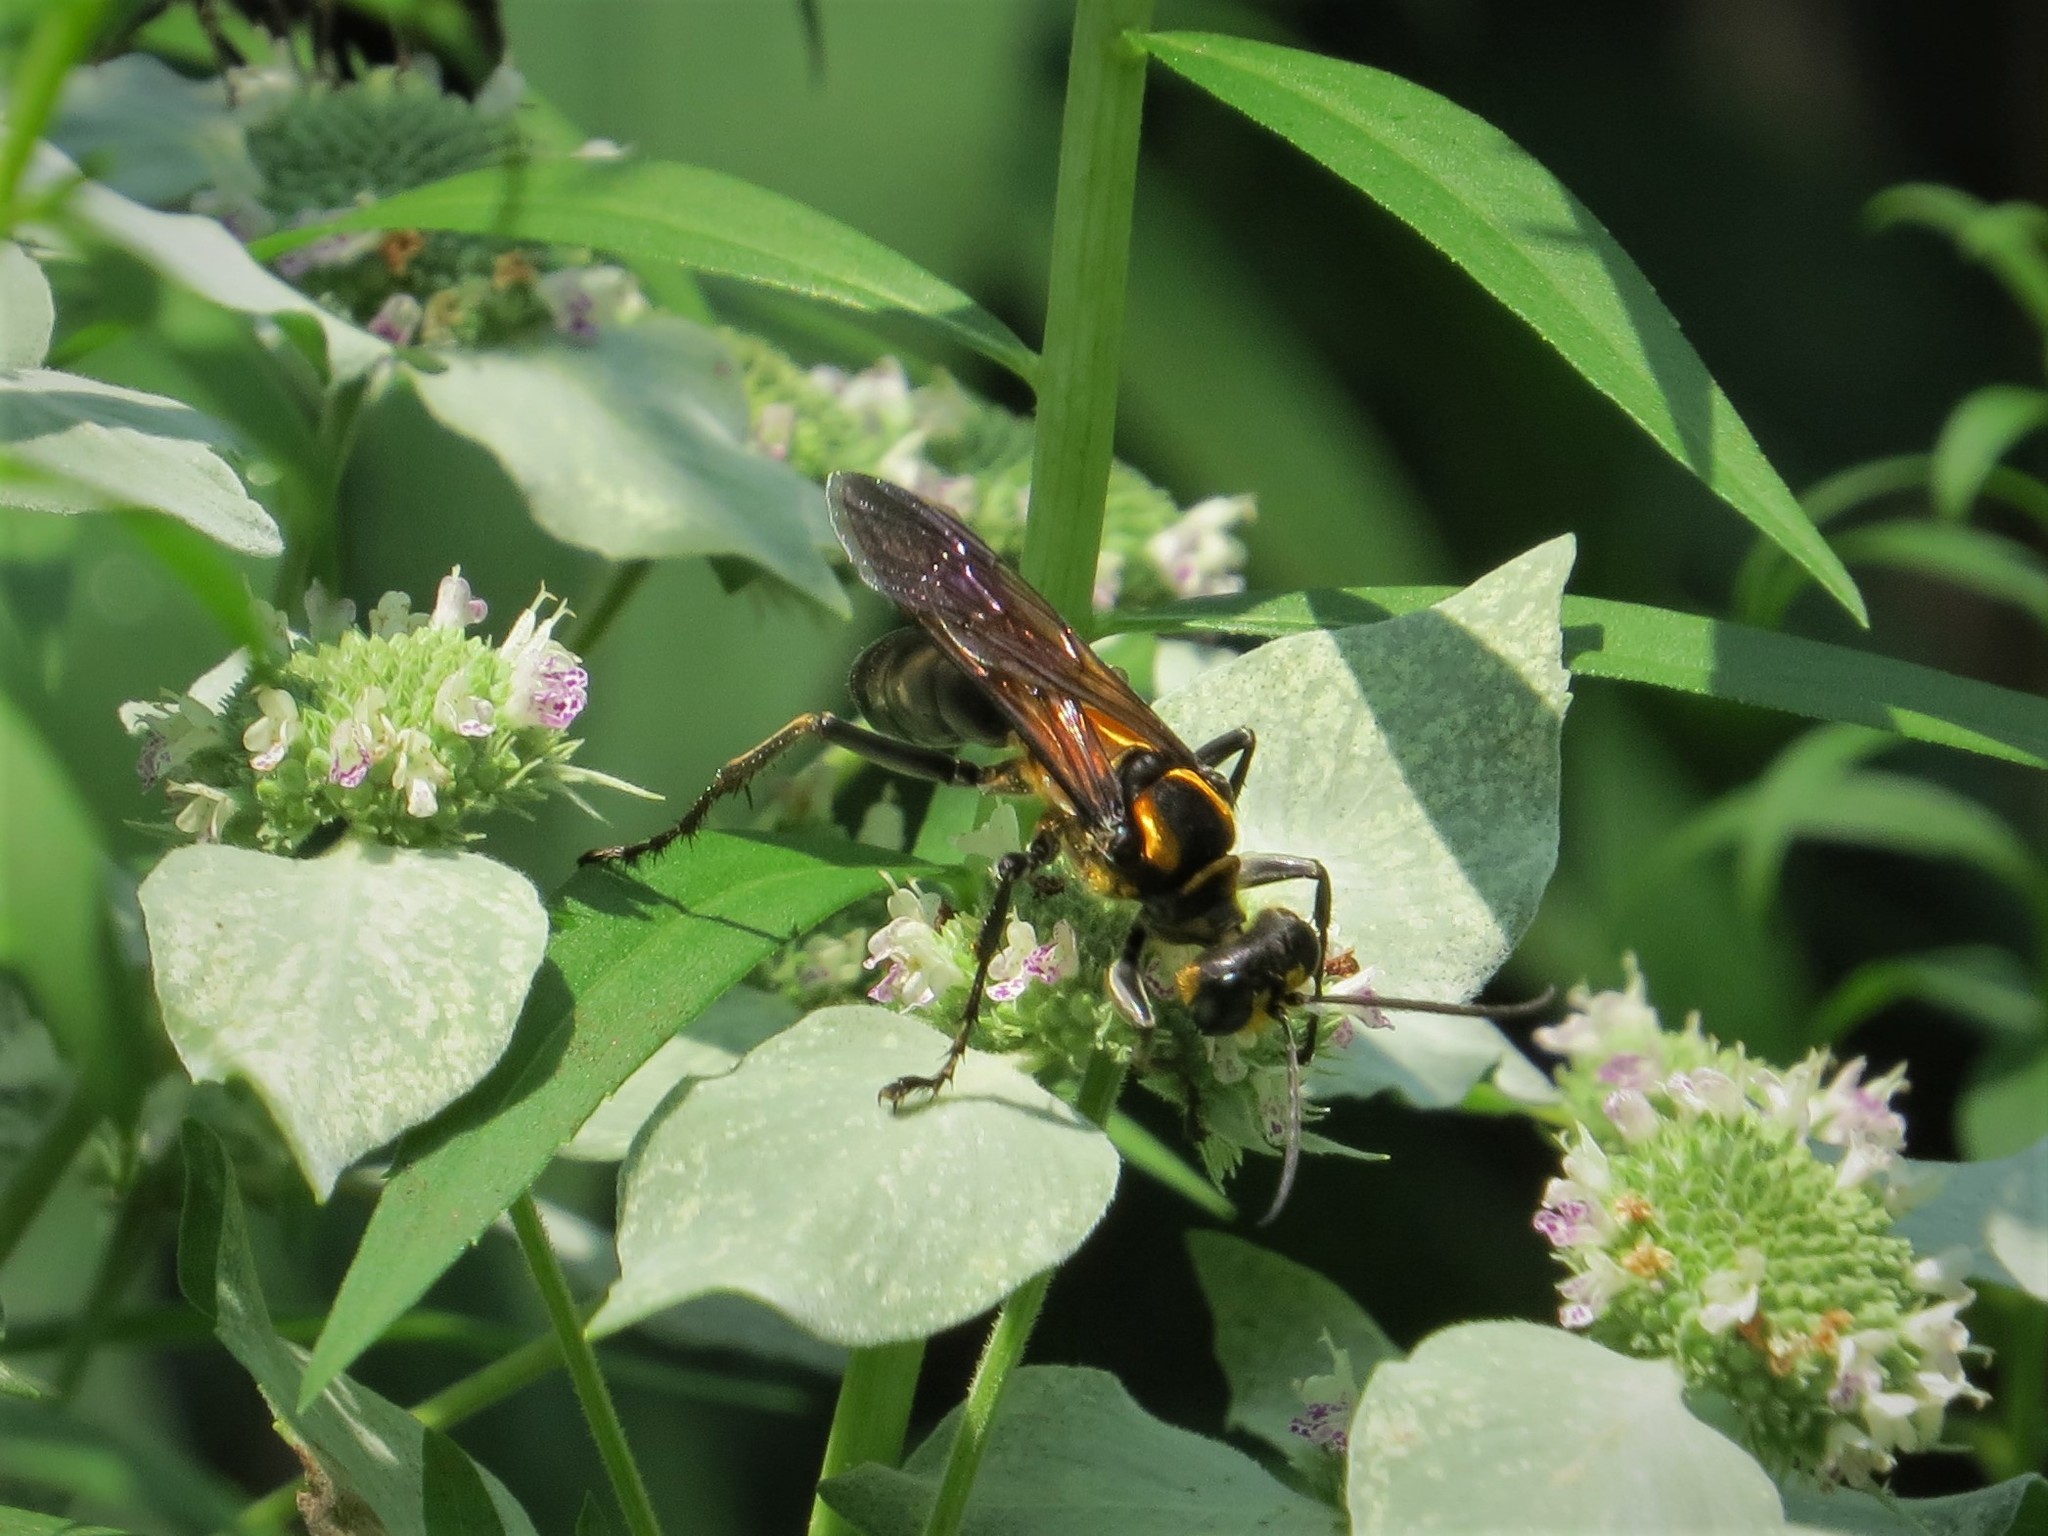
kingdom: Animalia
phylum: Arthropoda
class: Insecta
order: Hymenoptera
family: Sphecidae
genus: Sphex
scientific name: Sphex habenus
